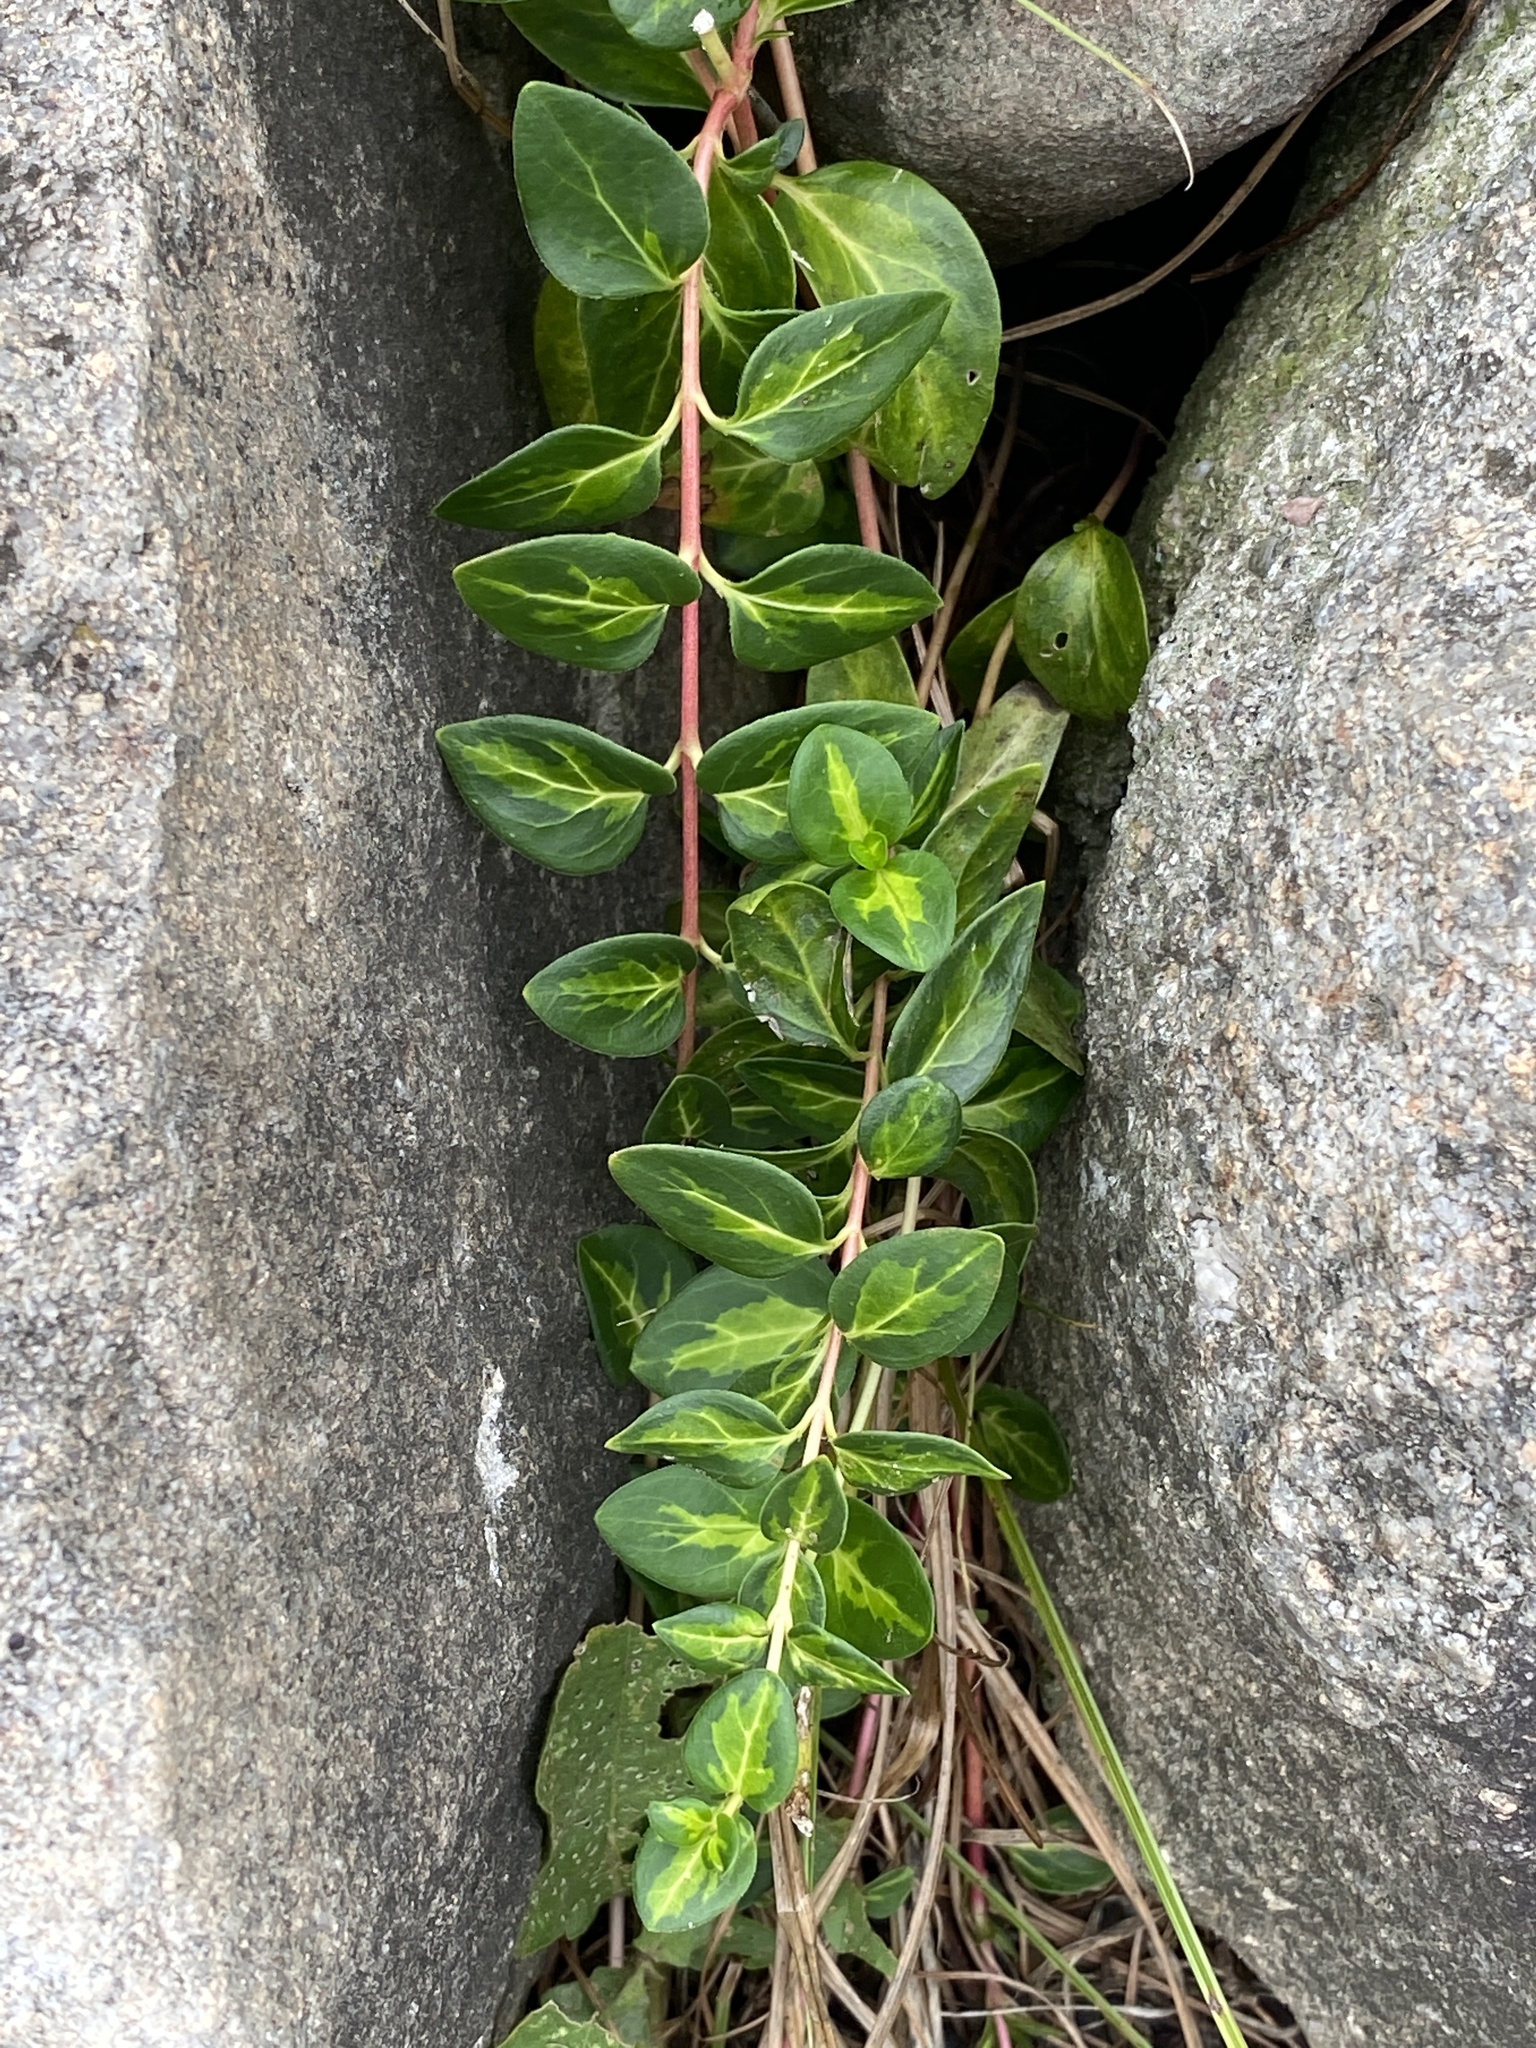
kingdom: Plantae
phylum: Tracheophyta
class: Magnoliopsida
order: Gentianales
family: Apocynaceae
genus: Vinca
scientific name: Vinca major
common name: Greater periwinkle
